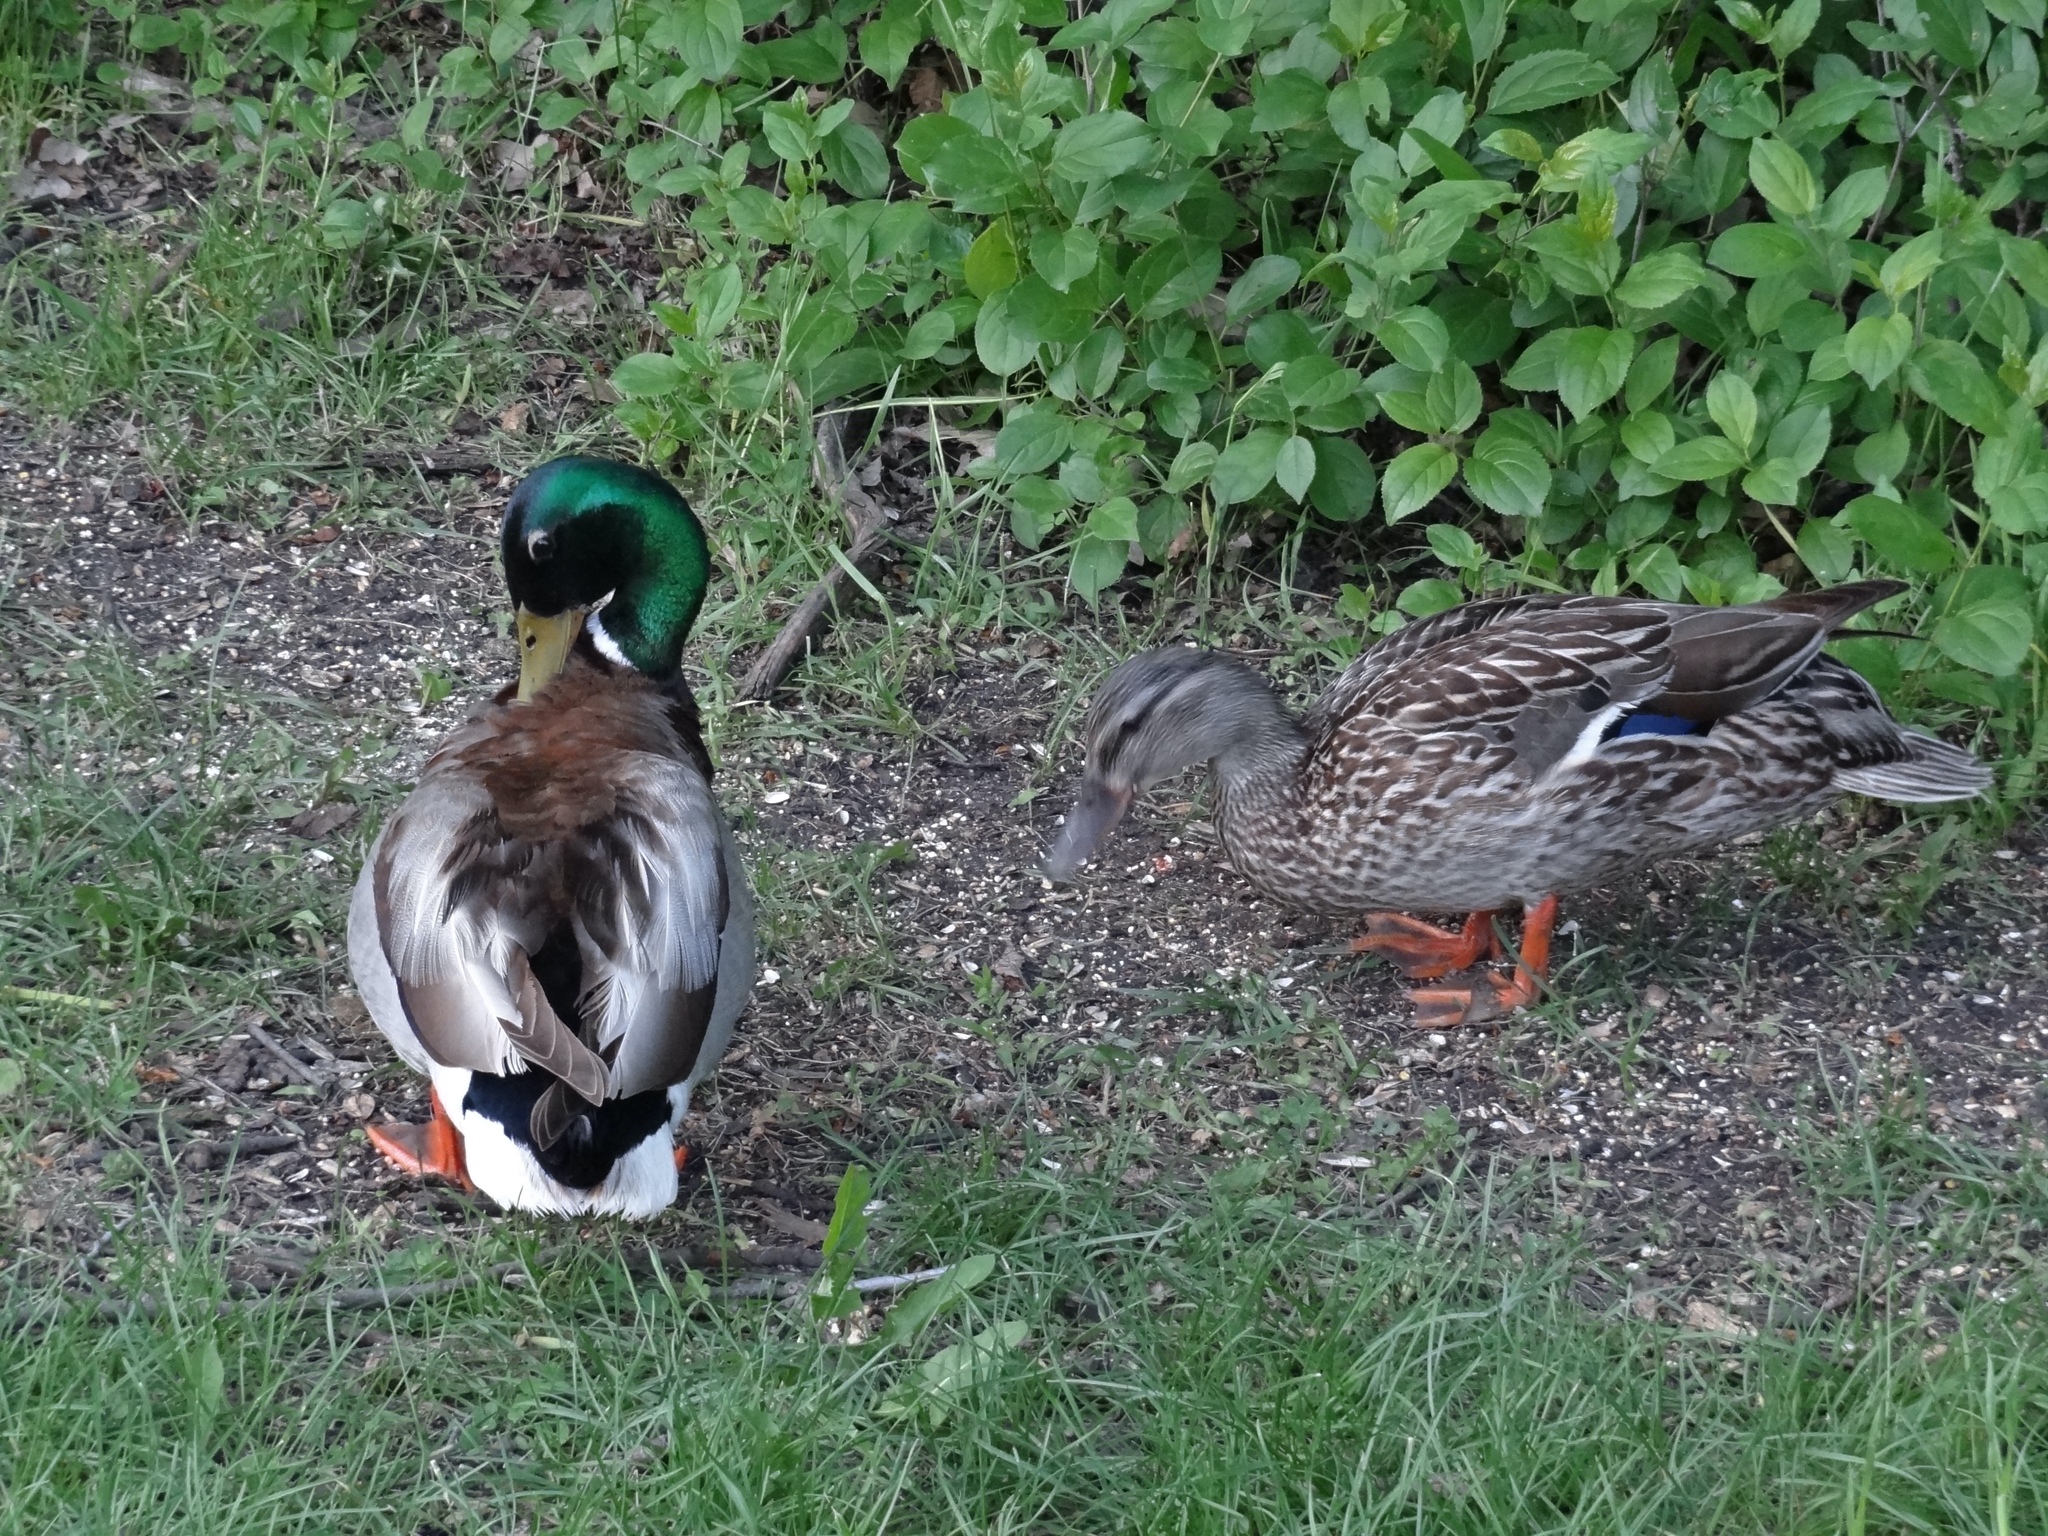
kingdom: Animalia
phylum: Chordata
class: Aves
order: Anseriformes
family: Anatidae
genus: Anas
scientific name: Anas platyrhynchos
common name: Mallard
